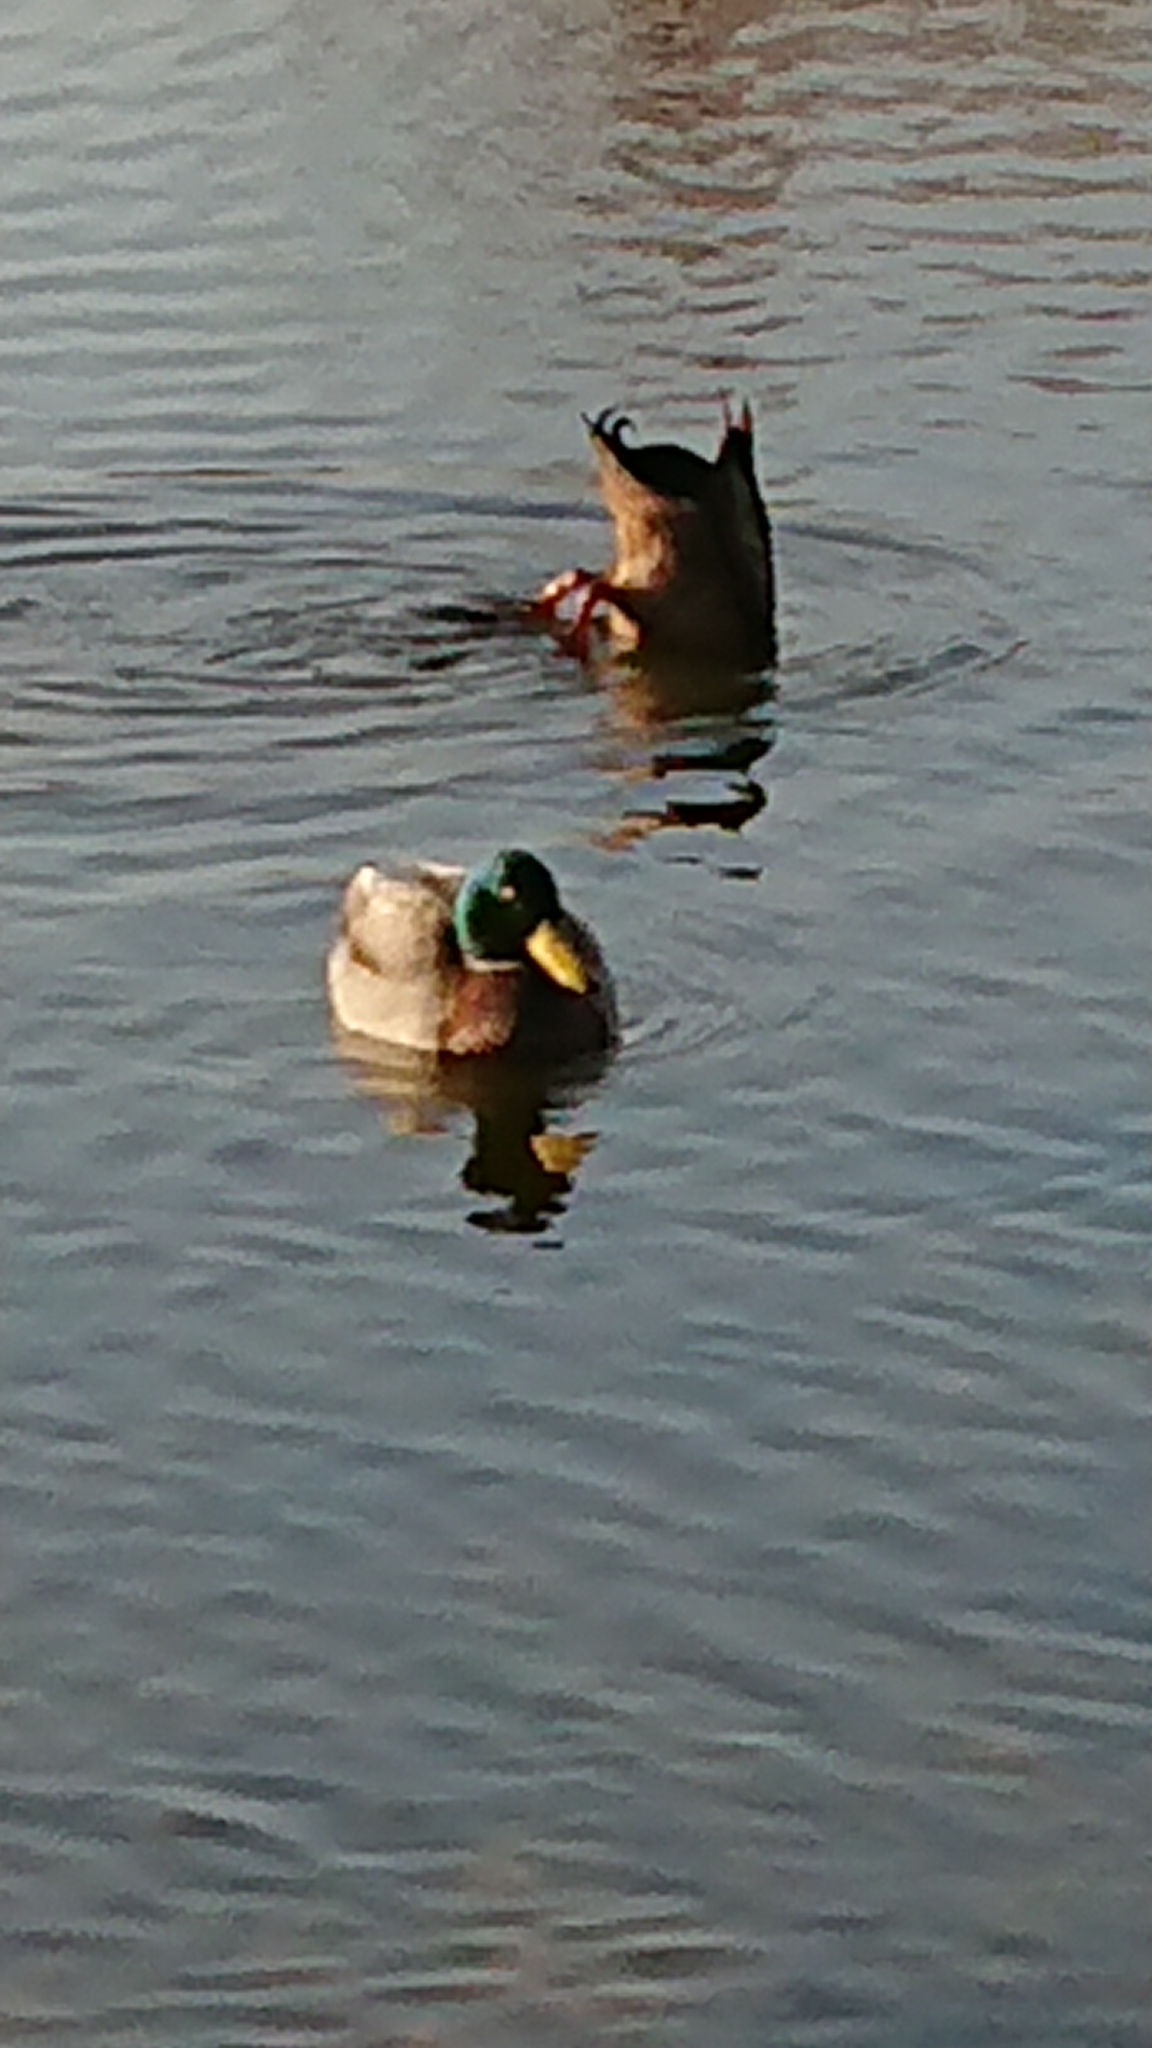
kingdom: Animalia
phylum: Chordata
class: Aves
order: Anseriformes
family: Anatidae
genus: Anas
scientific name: Anas platyrhynchos
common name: Mallard
